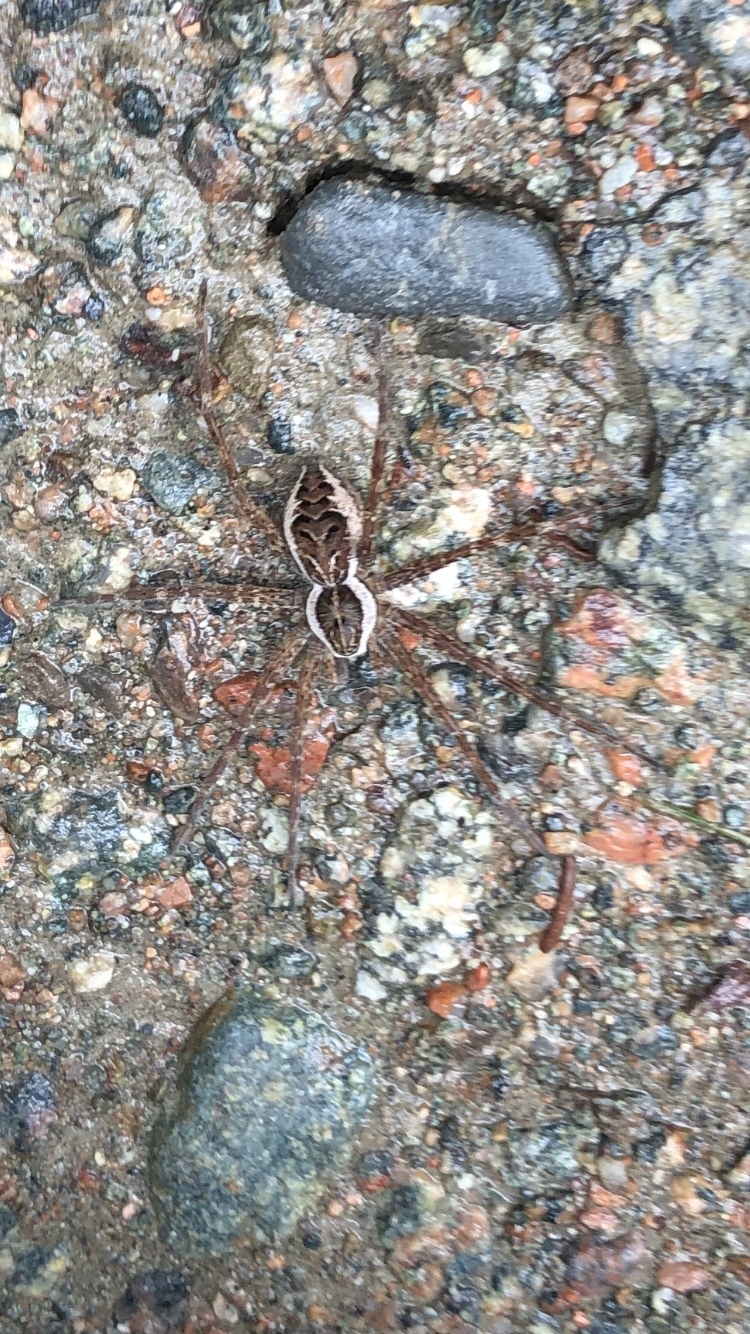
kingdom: Animalia
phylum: Arthropoda
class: Arachnida
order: Araneae
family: Pisauridae
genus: Dolomedes
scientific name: Dolomedes scriptus
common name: Striped fishing spider
